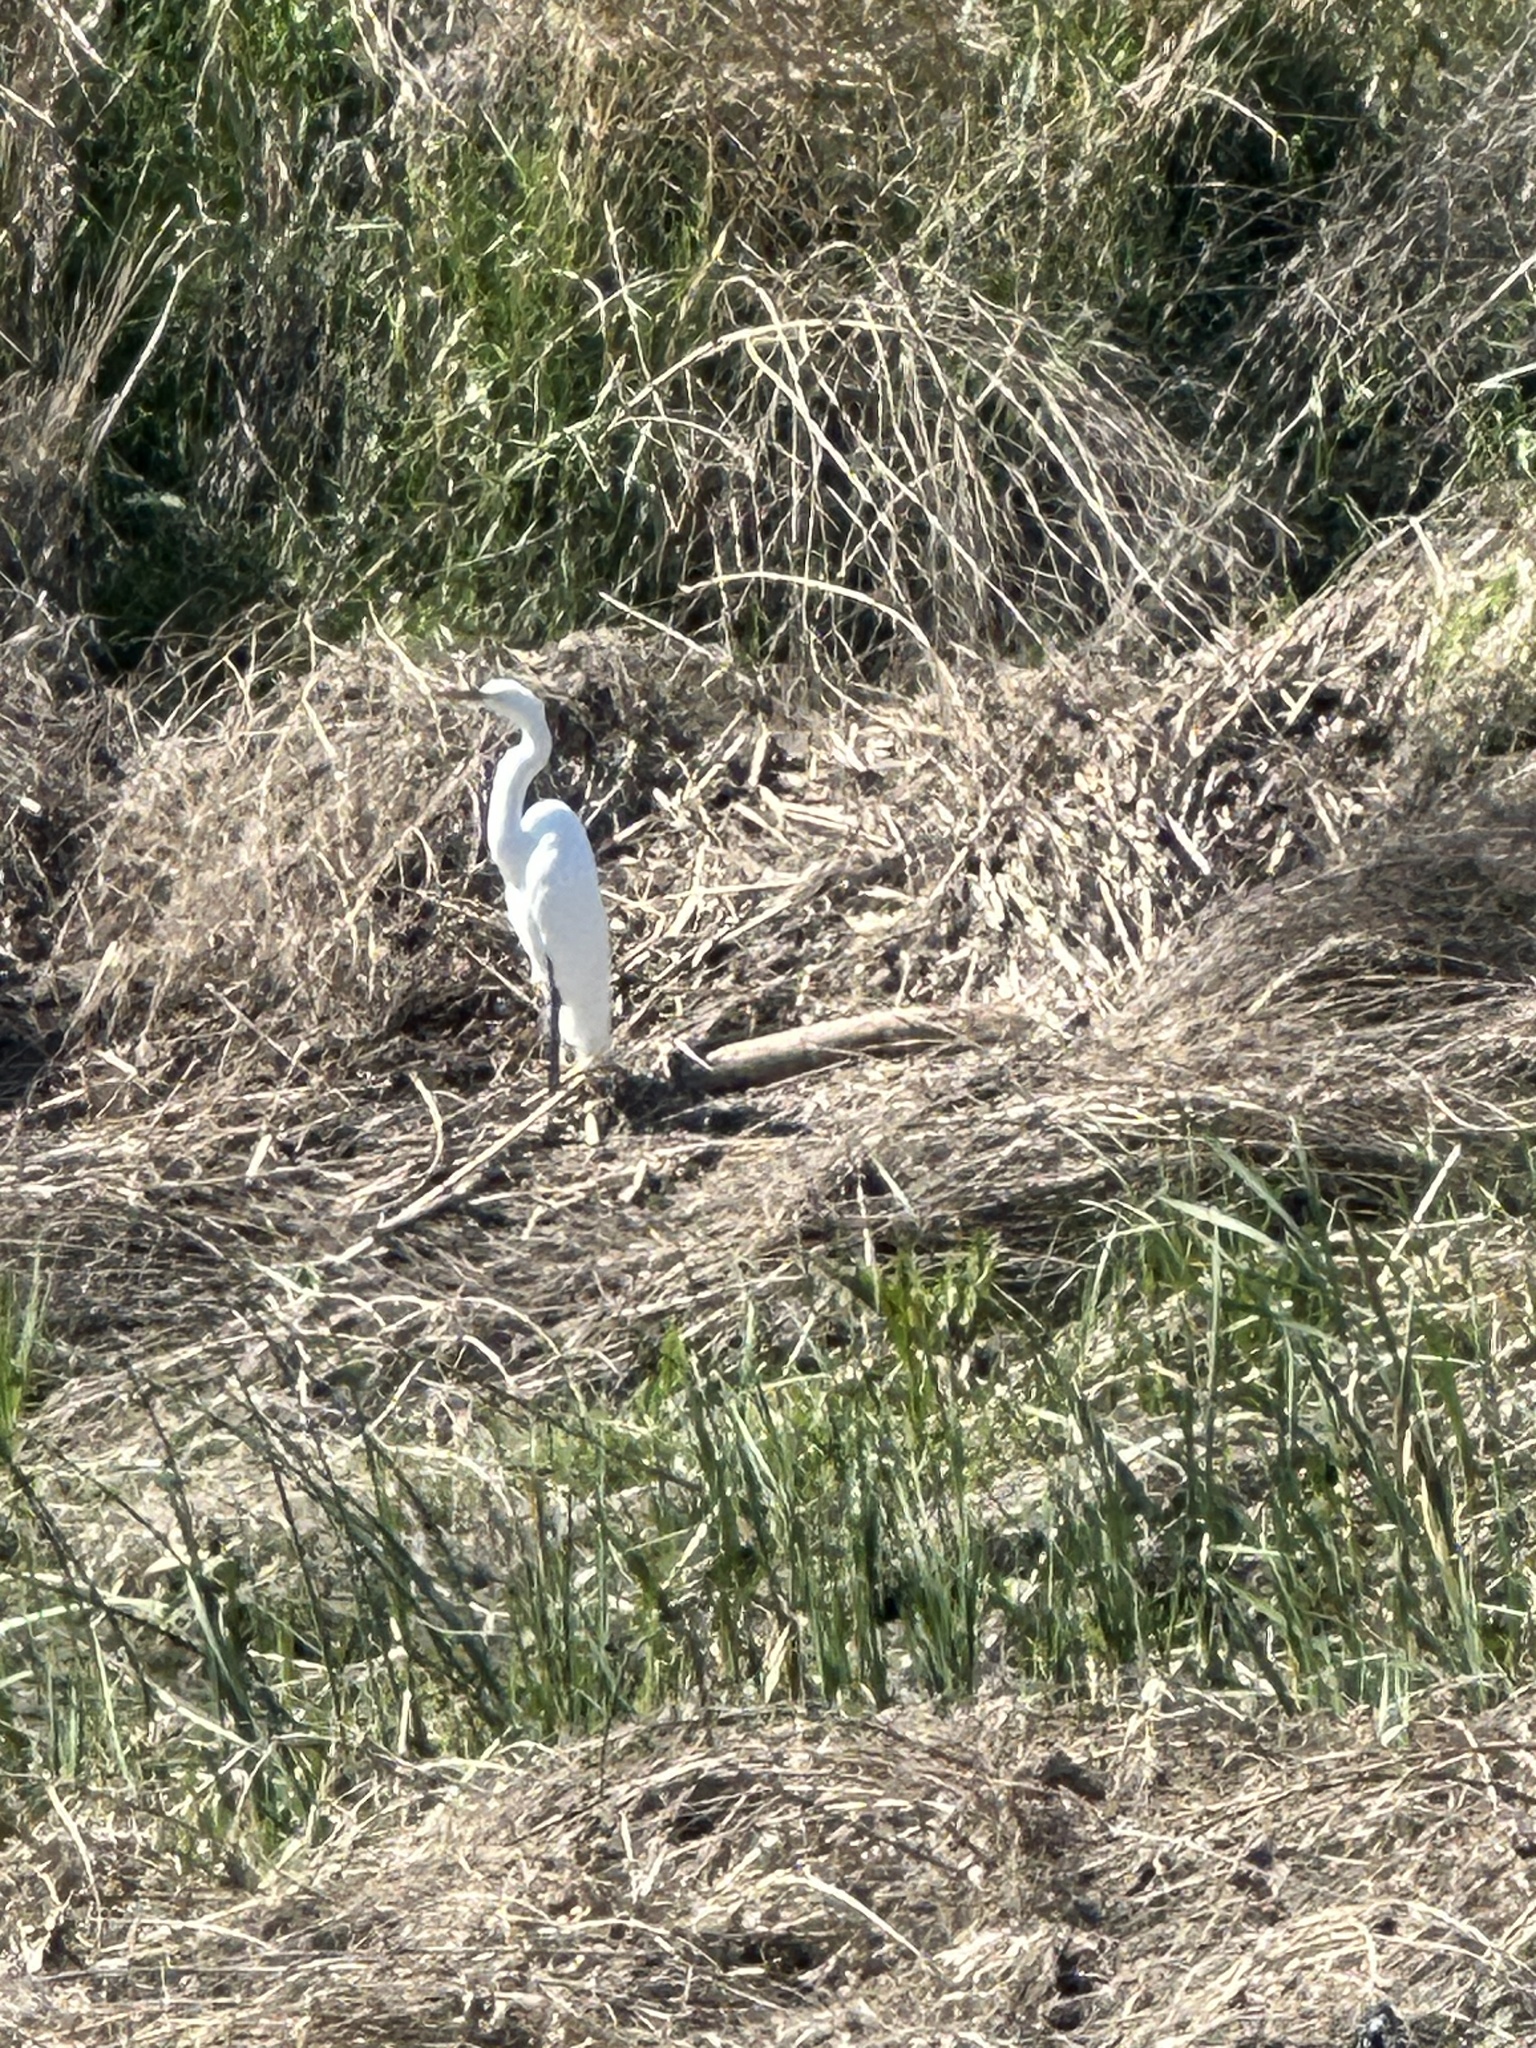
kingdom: Animalia
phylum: Chordata
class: Aves
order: Pelecaniformes
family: Ardeidae
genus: Ardea
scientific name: Ardea alba
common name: Great egret
